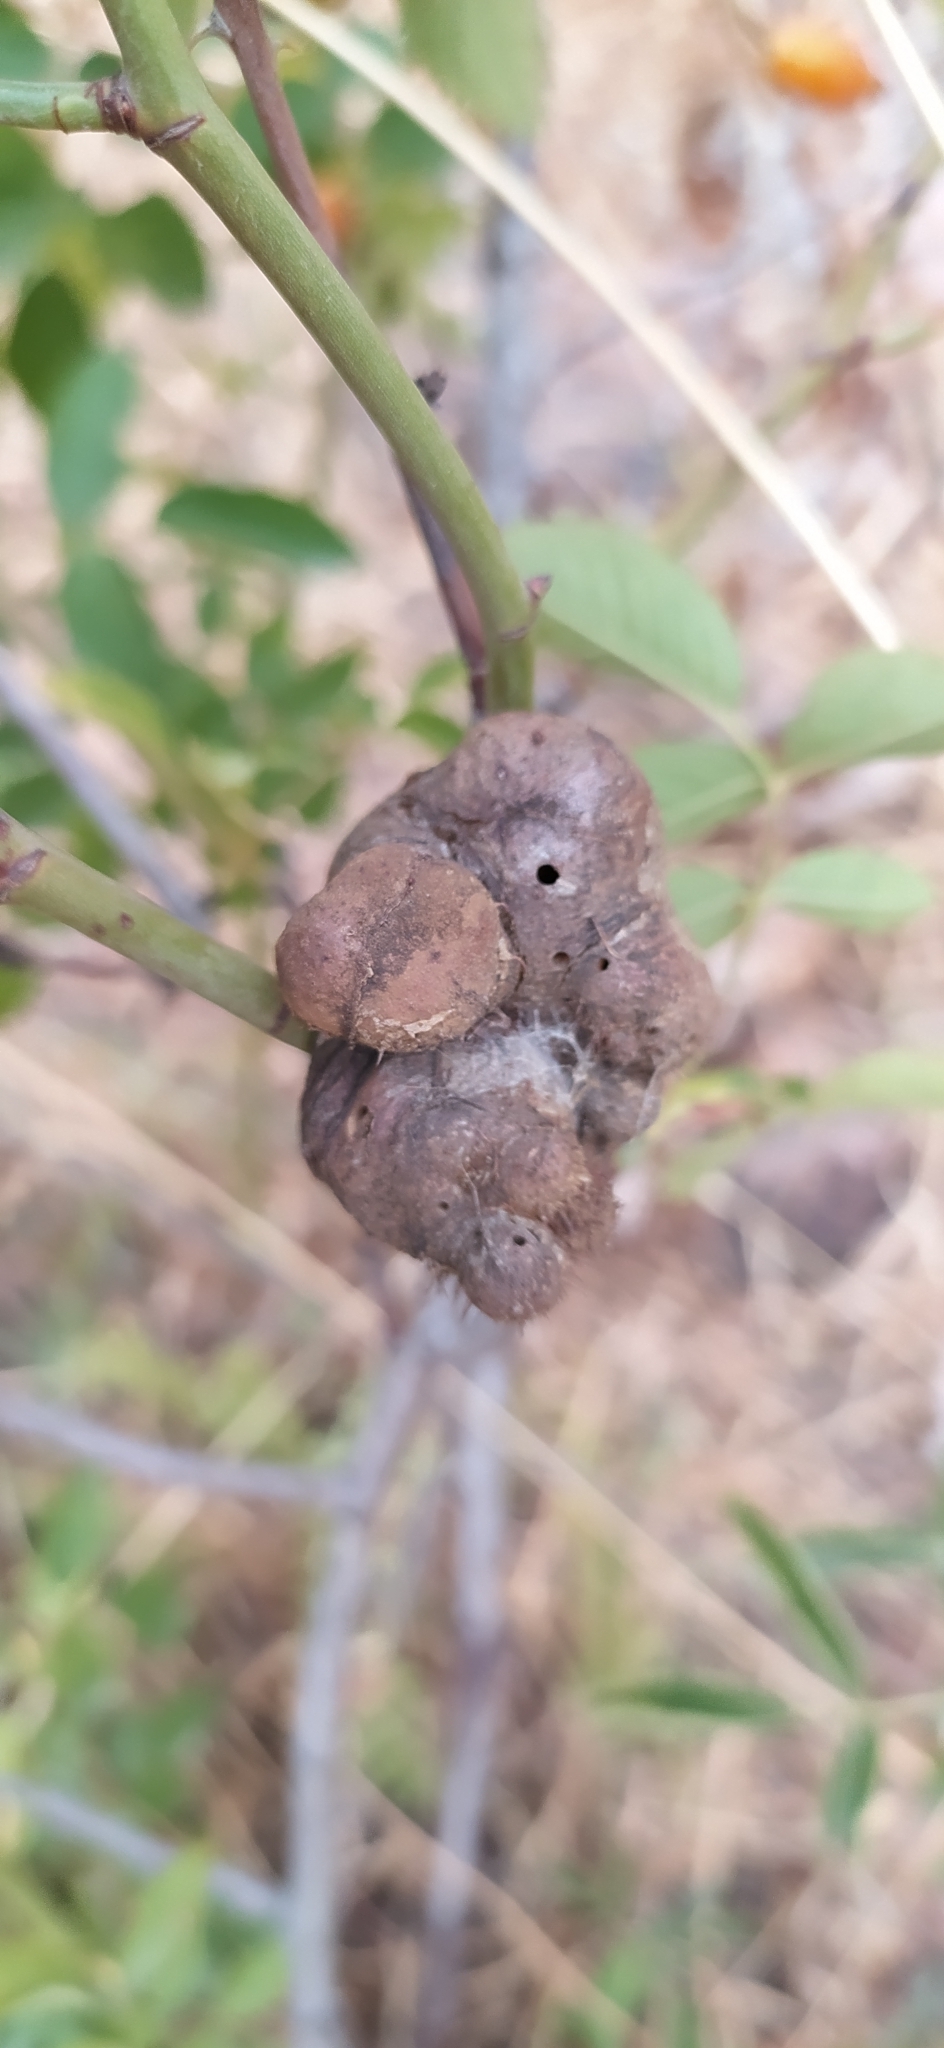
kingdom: Animalia
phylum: Arthropoda
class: Insecta
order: Hymenoptera
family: Cynipidae
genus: Diplolepis
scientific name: Diplolepis mayri
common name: Gall wasp
